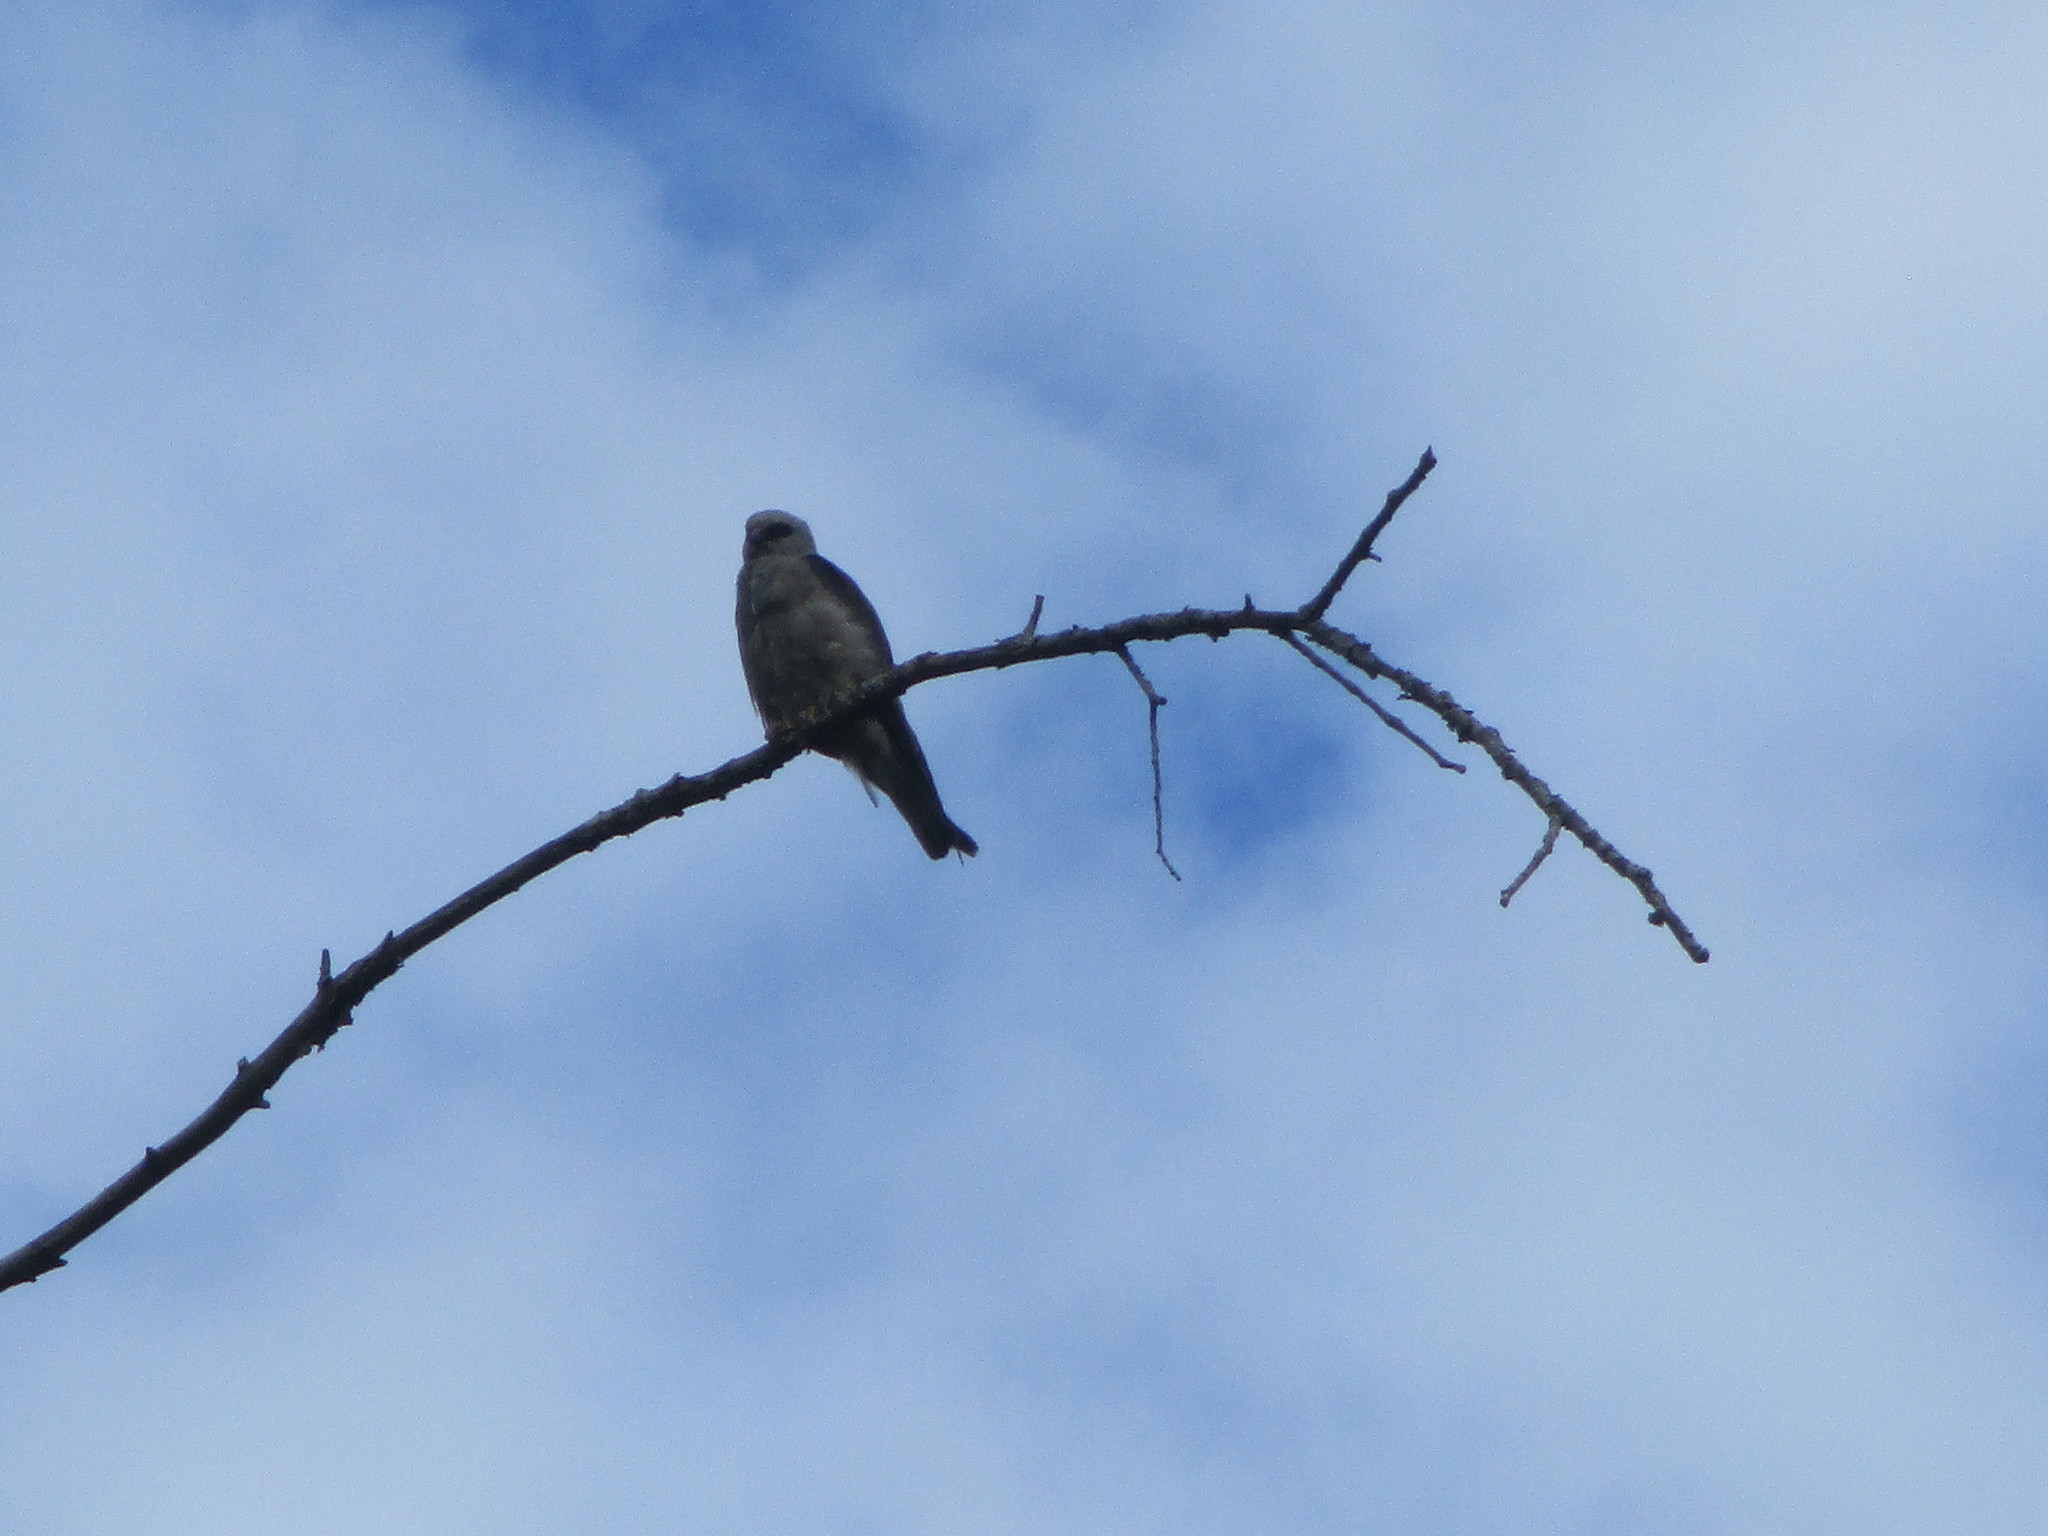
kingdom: Animalia
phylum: Chordata
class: Aves
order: Accipitriformes
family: Accipitridae
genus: Ictinia
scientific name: Ictinia mississippiensis
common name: Mississippi kite
